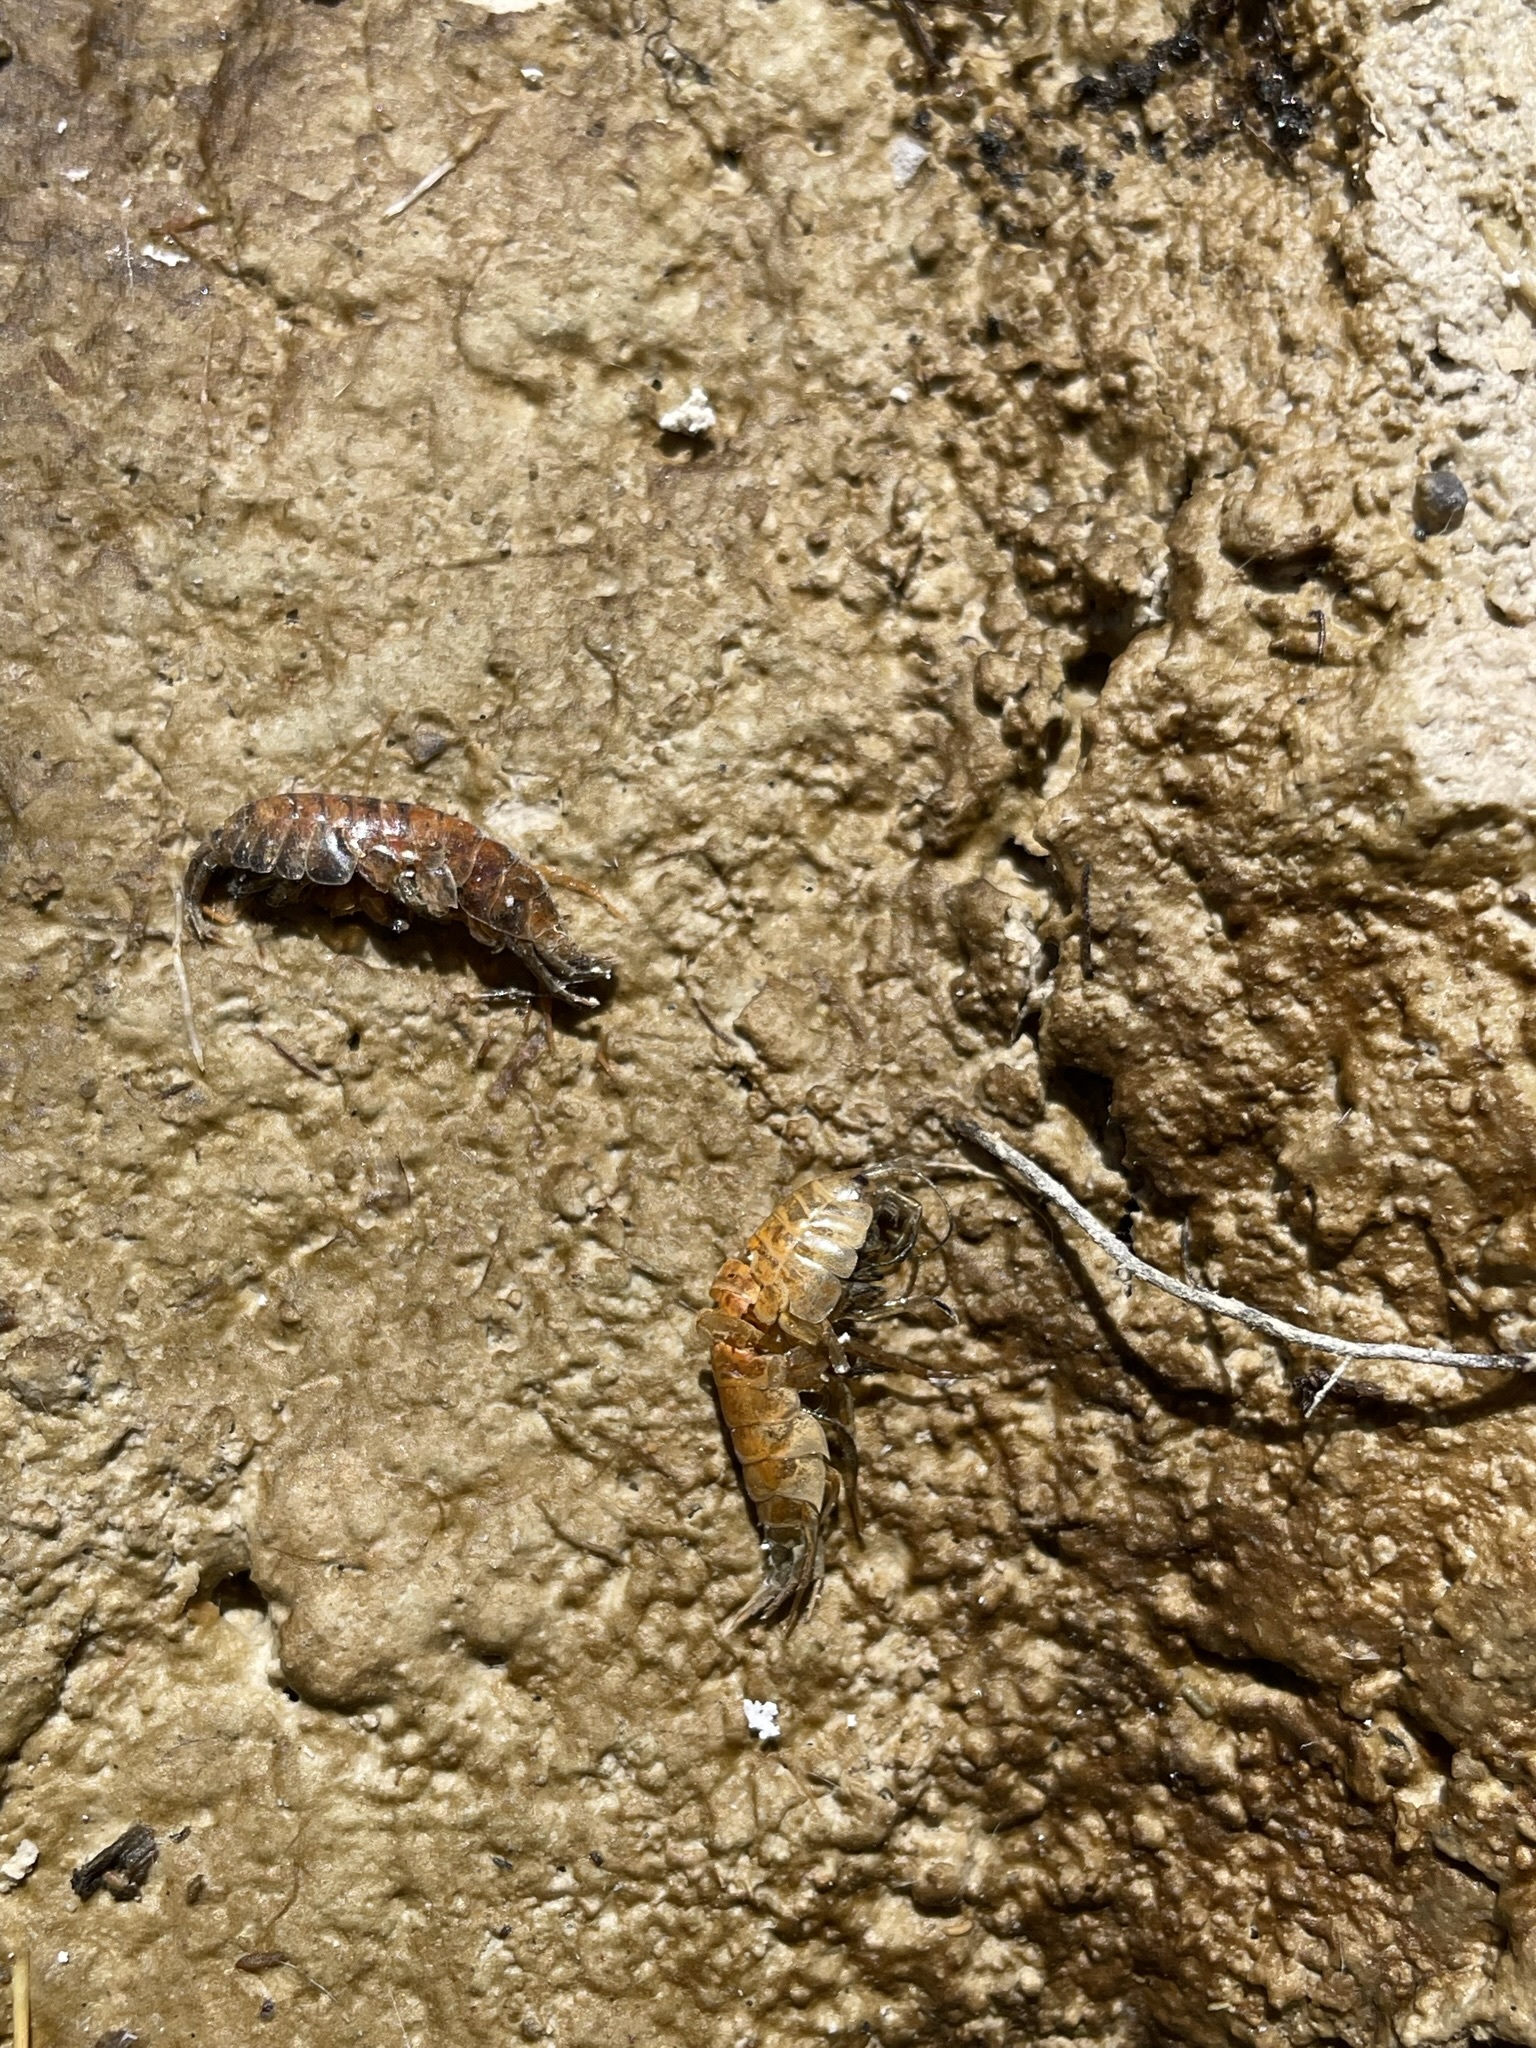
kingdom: Animalia
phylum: Arthropoda
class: Malacostraca
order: Amphipoda
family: Gammaridae
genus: Gammarus
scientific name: Gammarus lacustris
